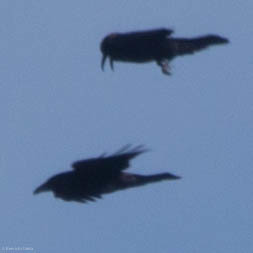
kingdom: Animalia
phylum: Chordata
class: Aves
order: Passeriformes
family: Corvidae
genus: Corvus
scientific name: Corvus corax
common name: Common raven
